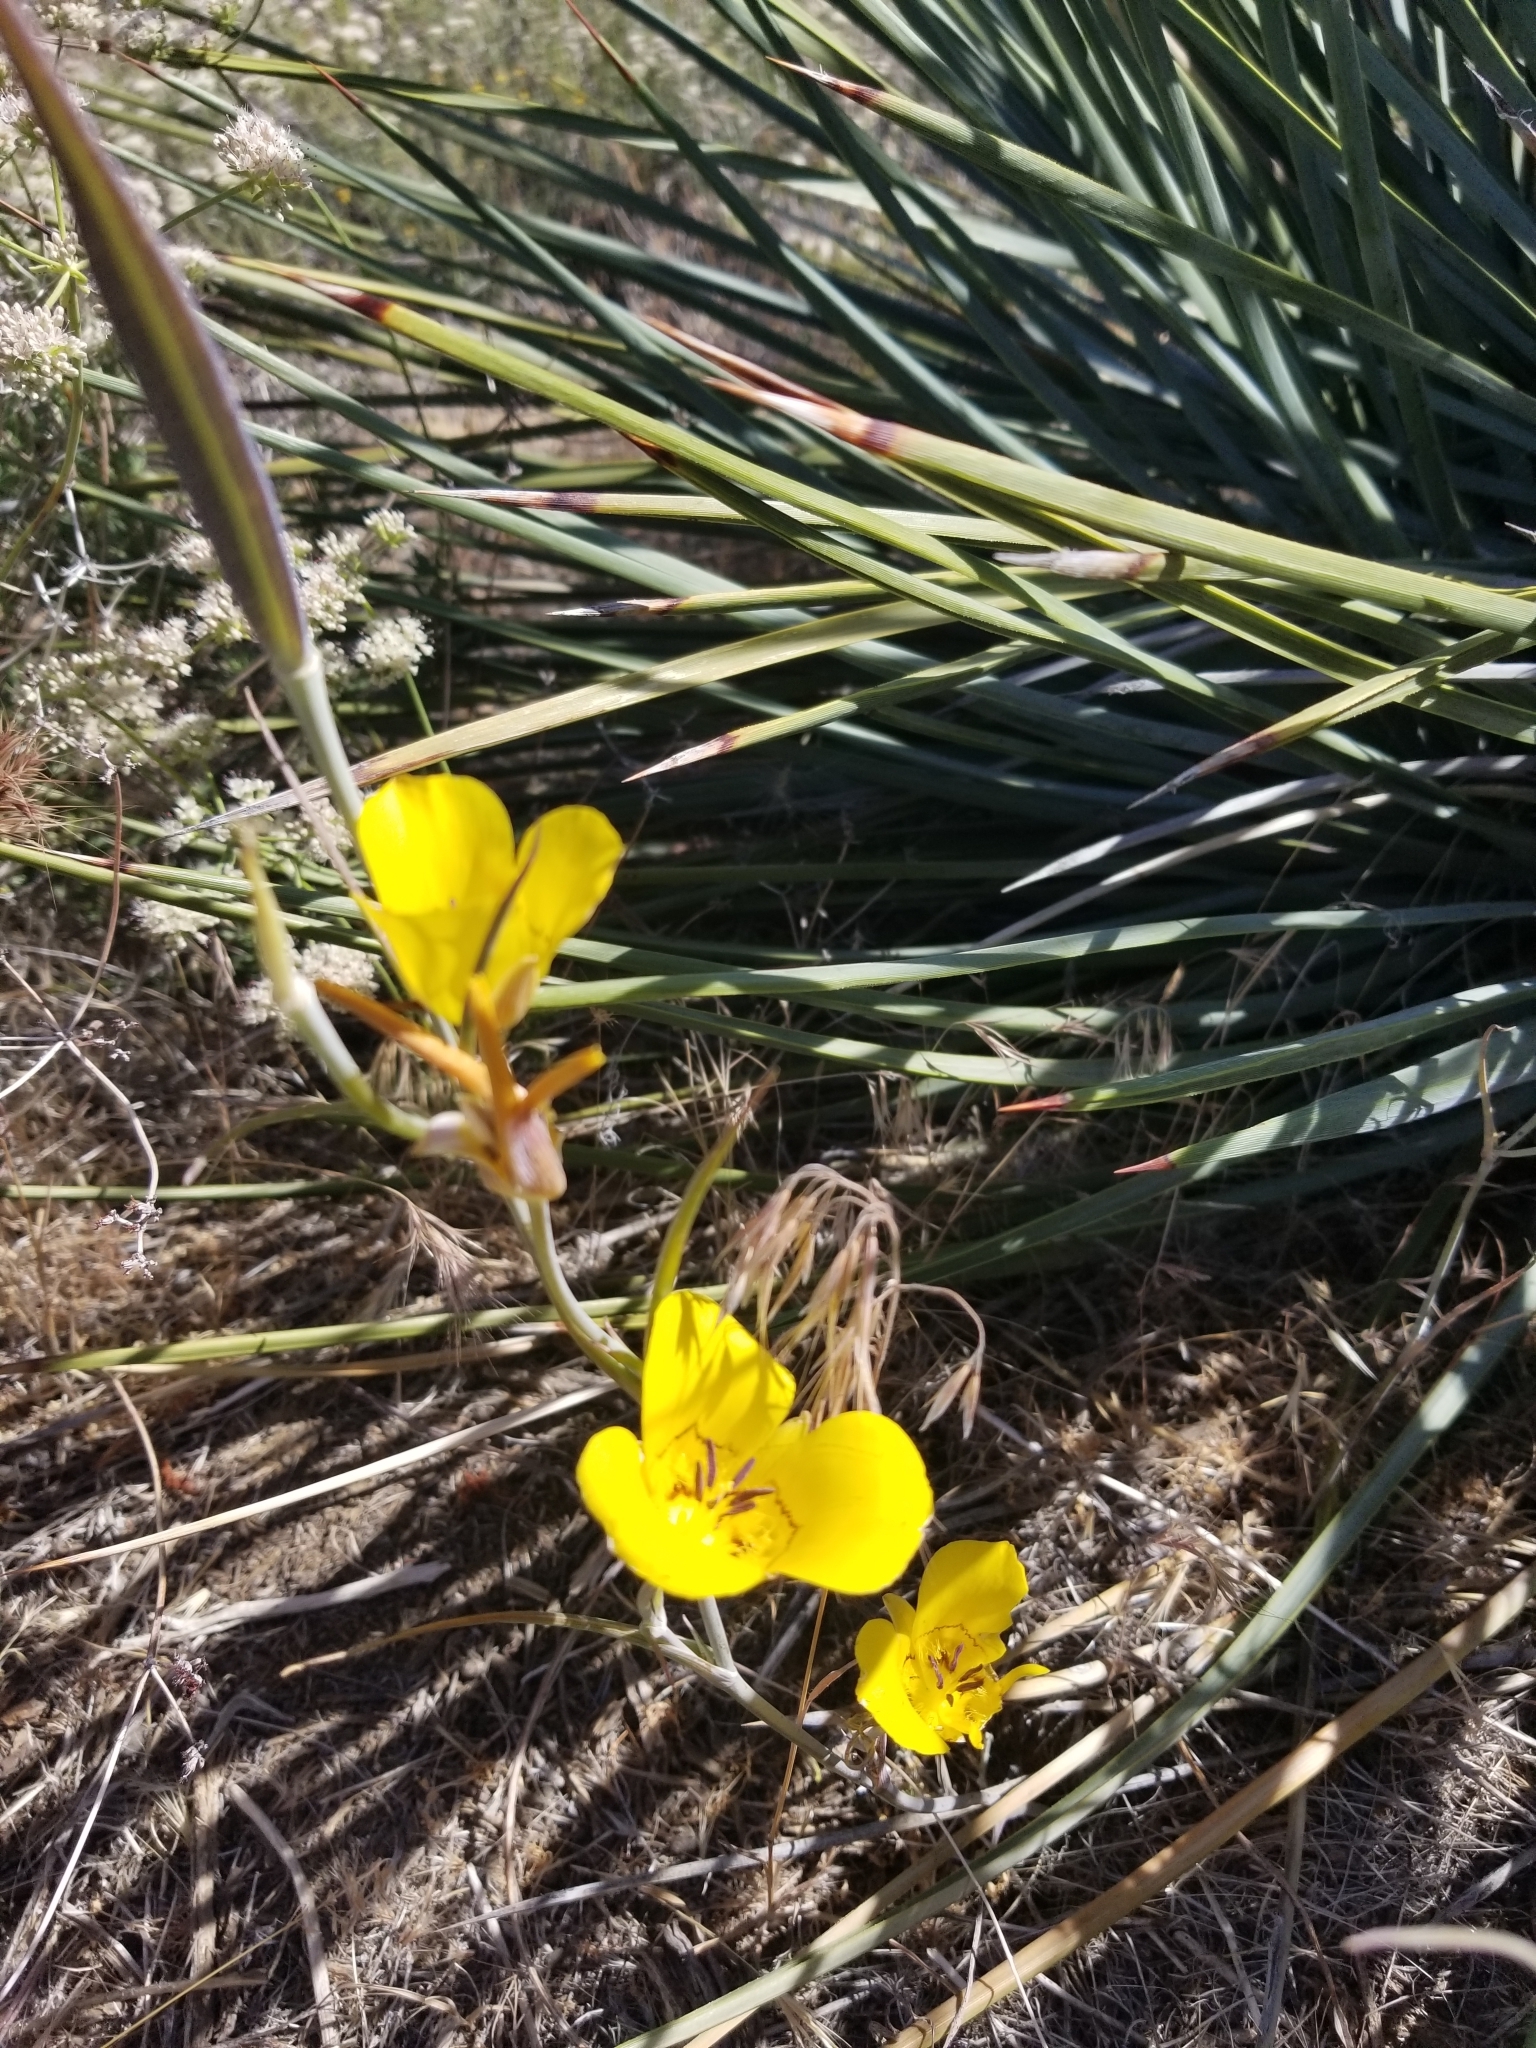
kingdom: Plantae
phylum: Tracheophyta
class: Liliopsida
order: Liliales
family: Liliaceae
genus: Calochortus
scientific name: Calochortus clavatus
